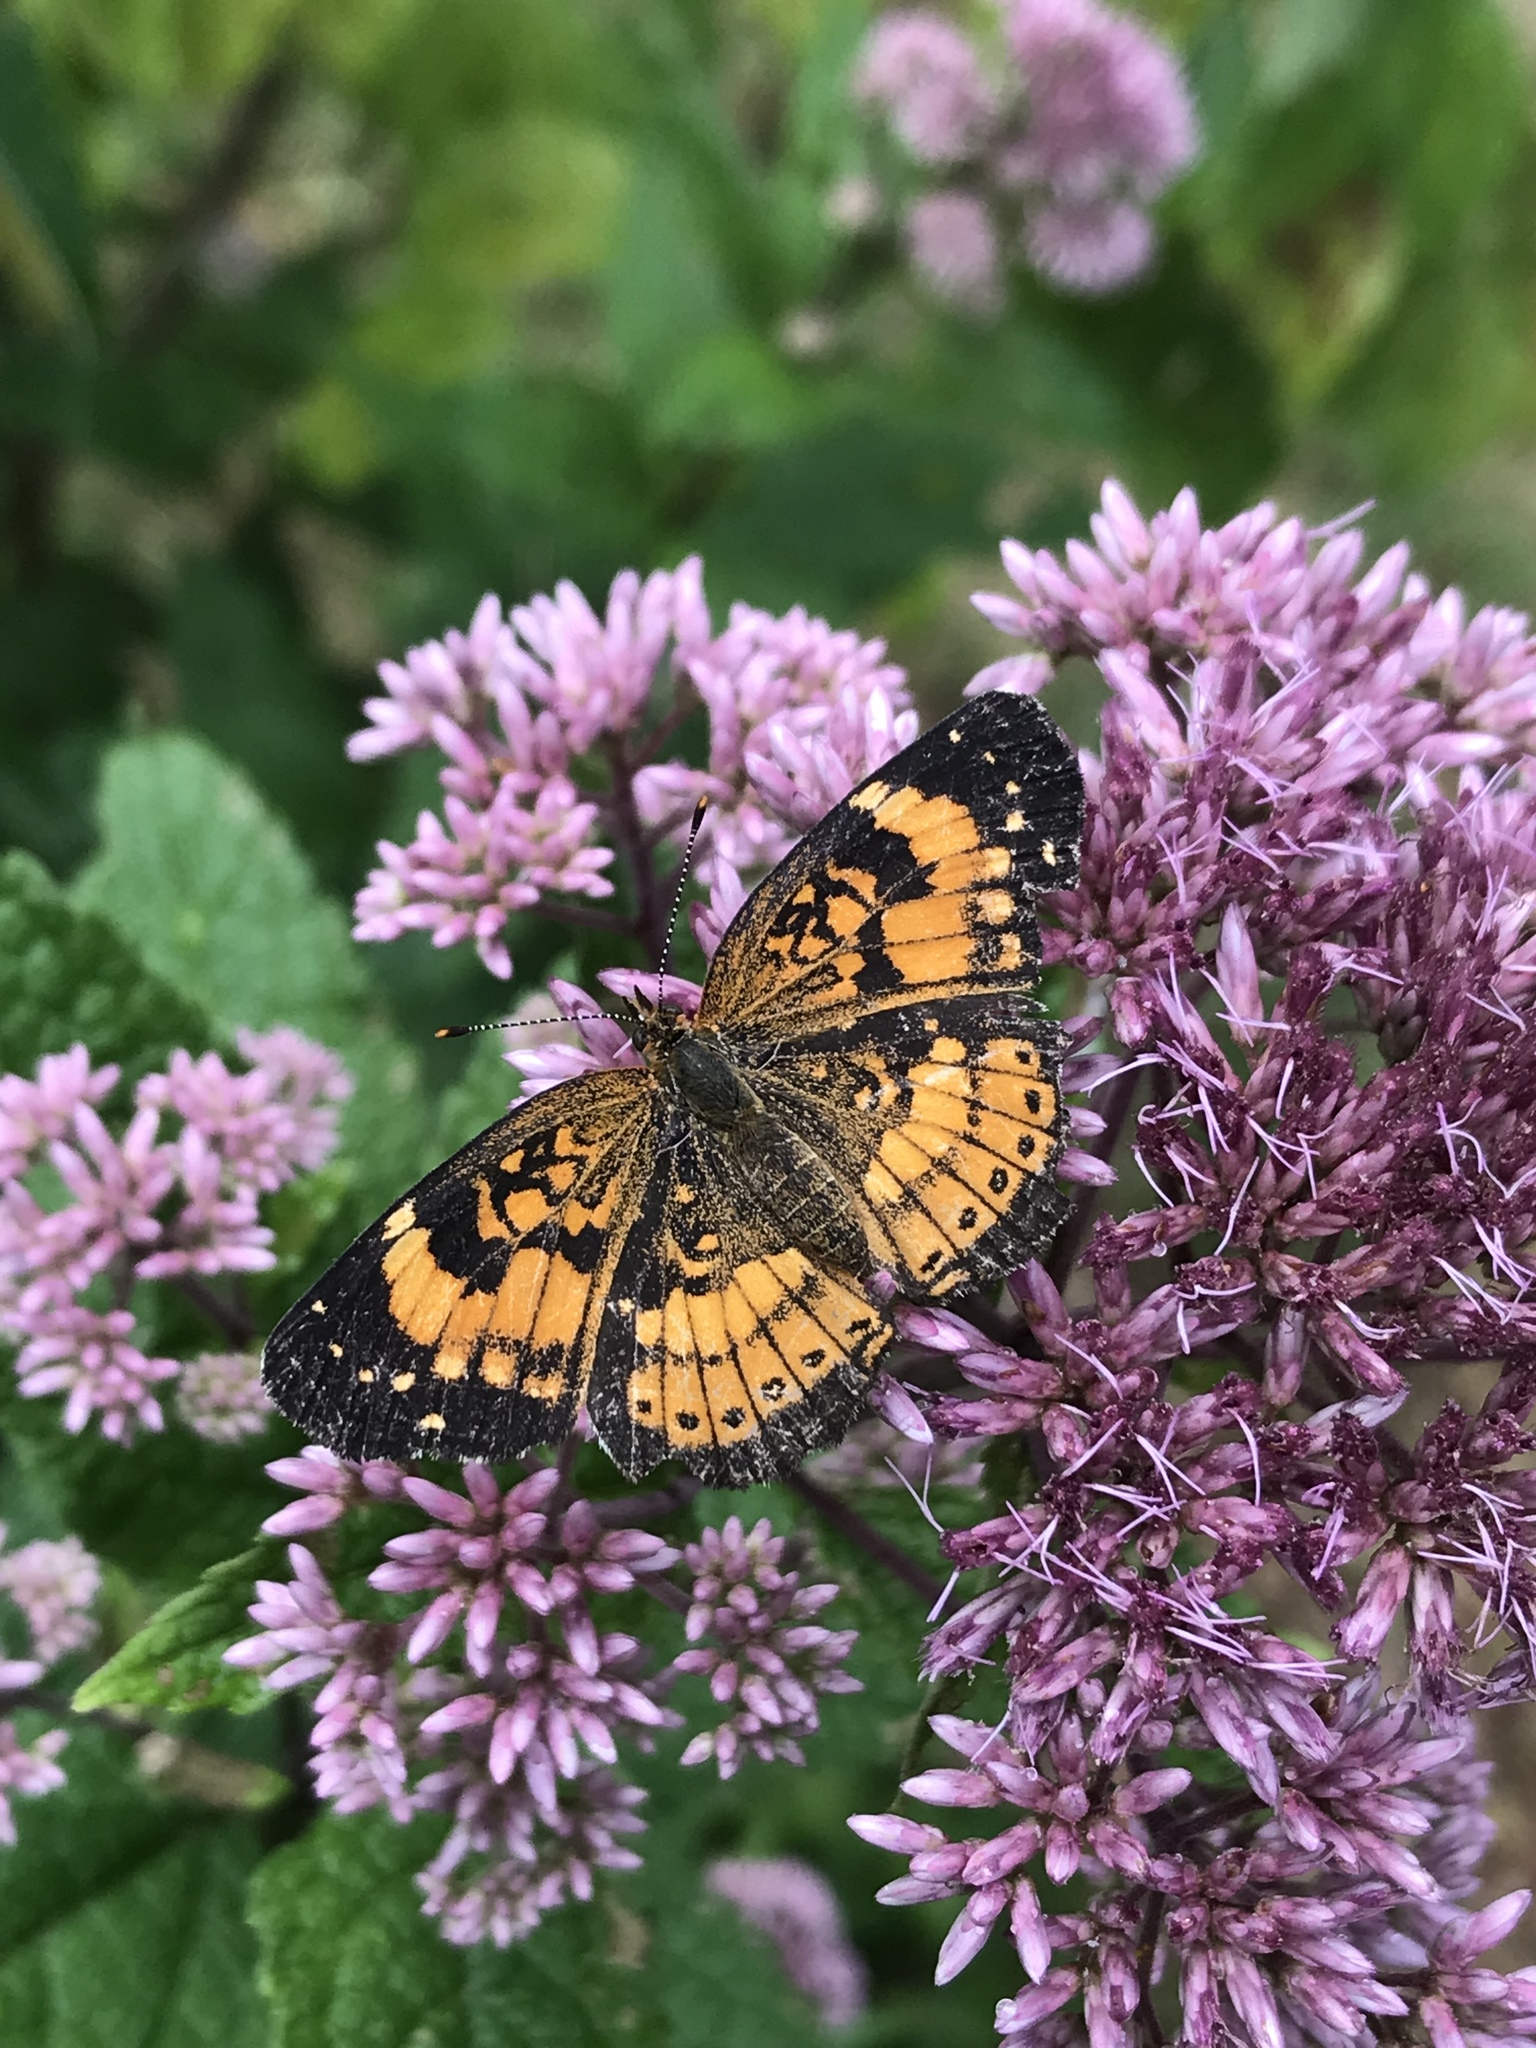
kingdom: Animalia
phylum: Arthropoda
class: Insecta
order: Lepidoptera
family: Nymphalidae
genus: Chlosyne
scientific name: Chlosyne nycteis
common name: Silvery checkerspot
